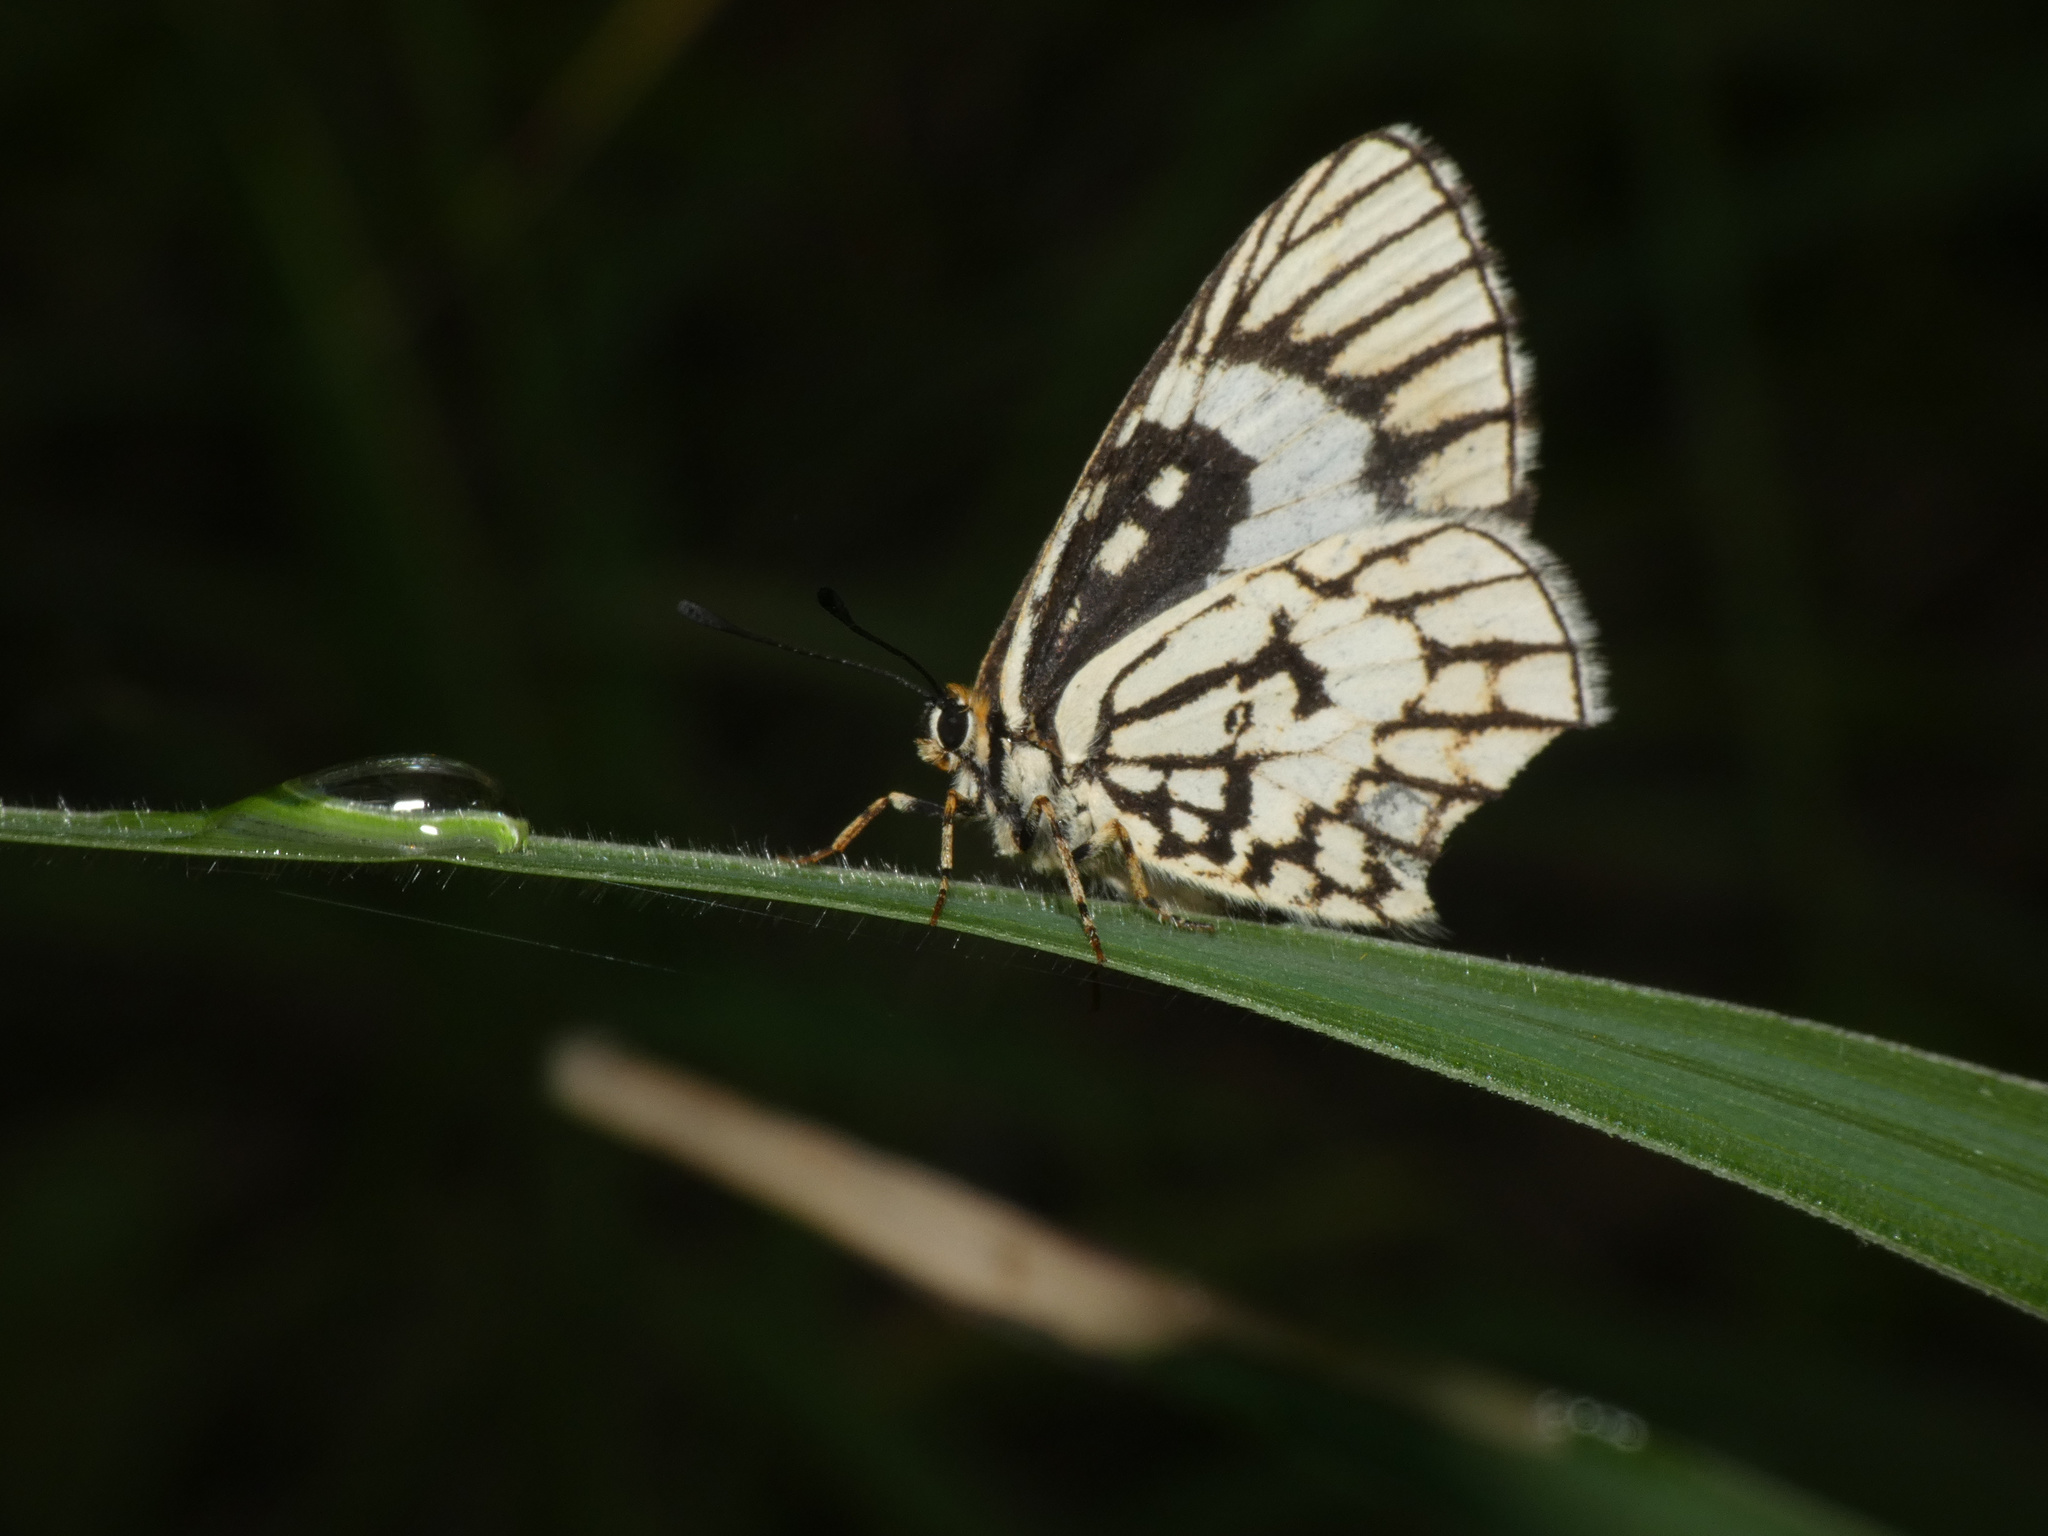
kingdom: Animalia
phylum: Arthropoda
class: Insecta
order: Lepidoptera
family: Lycaenidae
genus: Alaena
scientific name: Alaena nyassa
